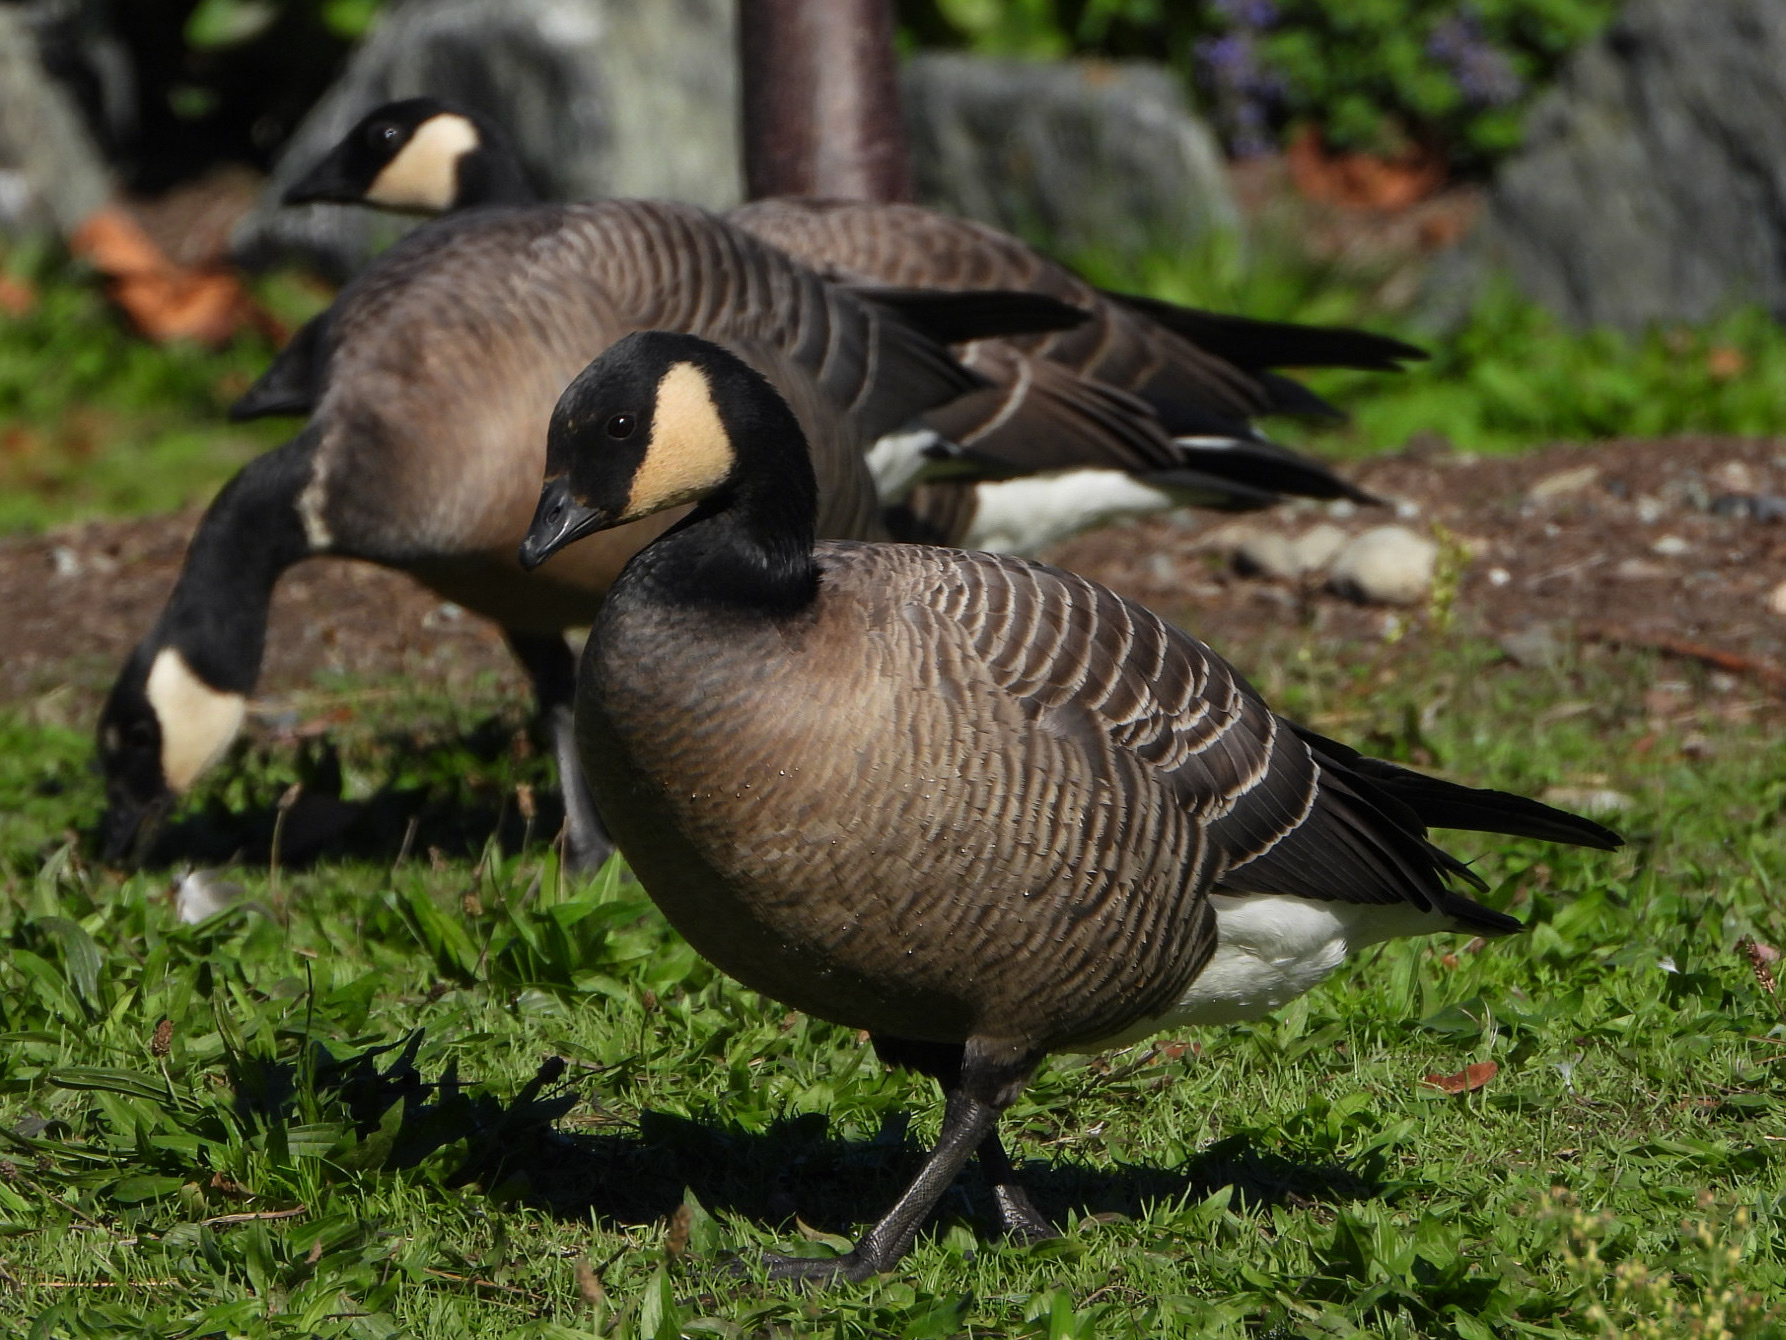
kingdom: Animalia
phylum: Chordata
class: Aves
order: Anseriformes
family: Anatidae
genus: Branta
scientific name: Branta hutchinsii
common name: Cackling goose
